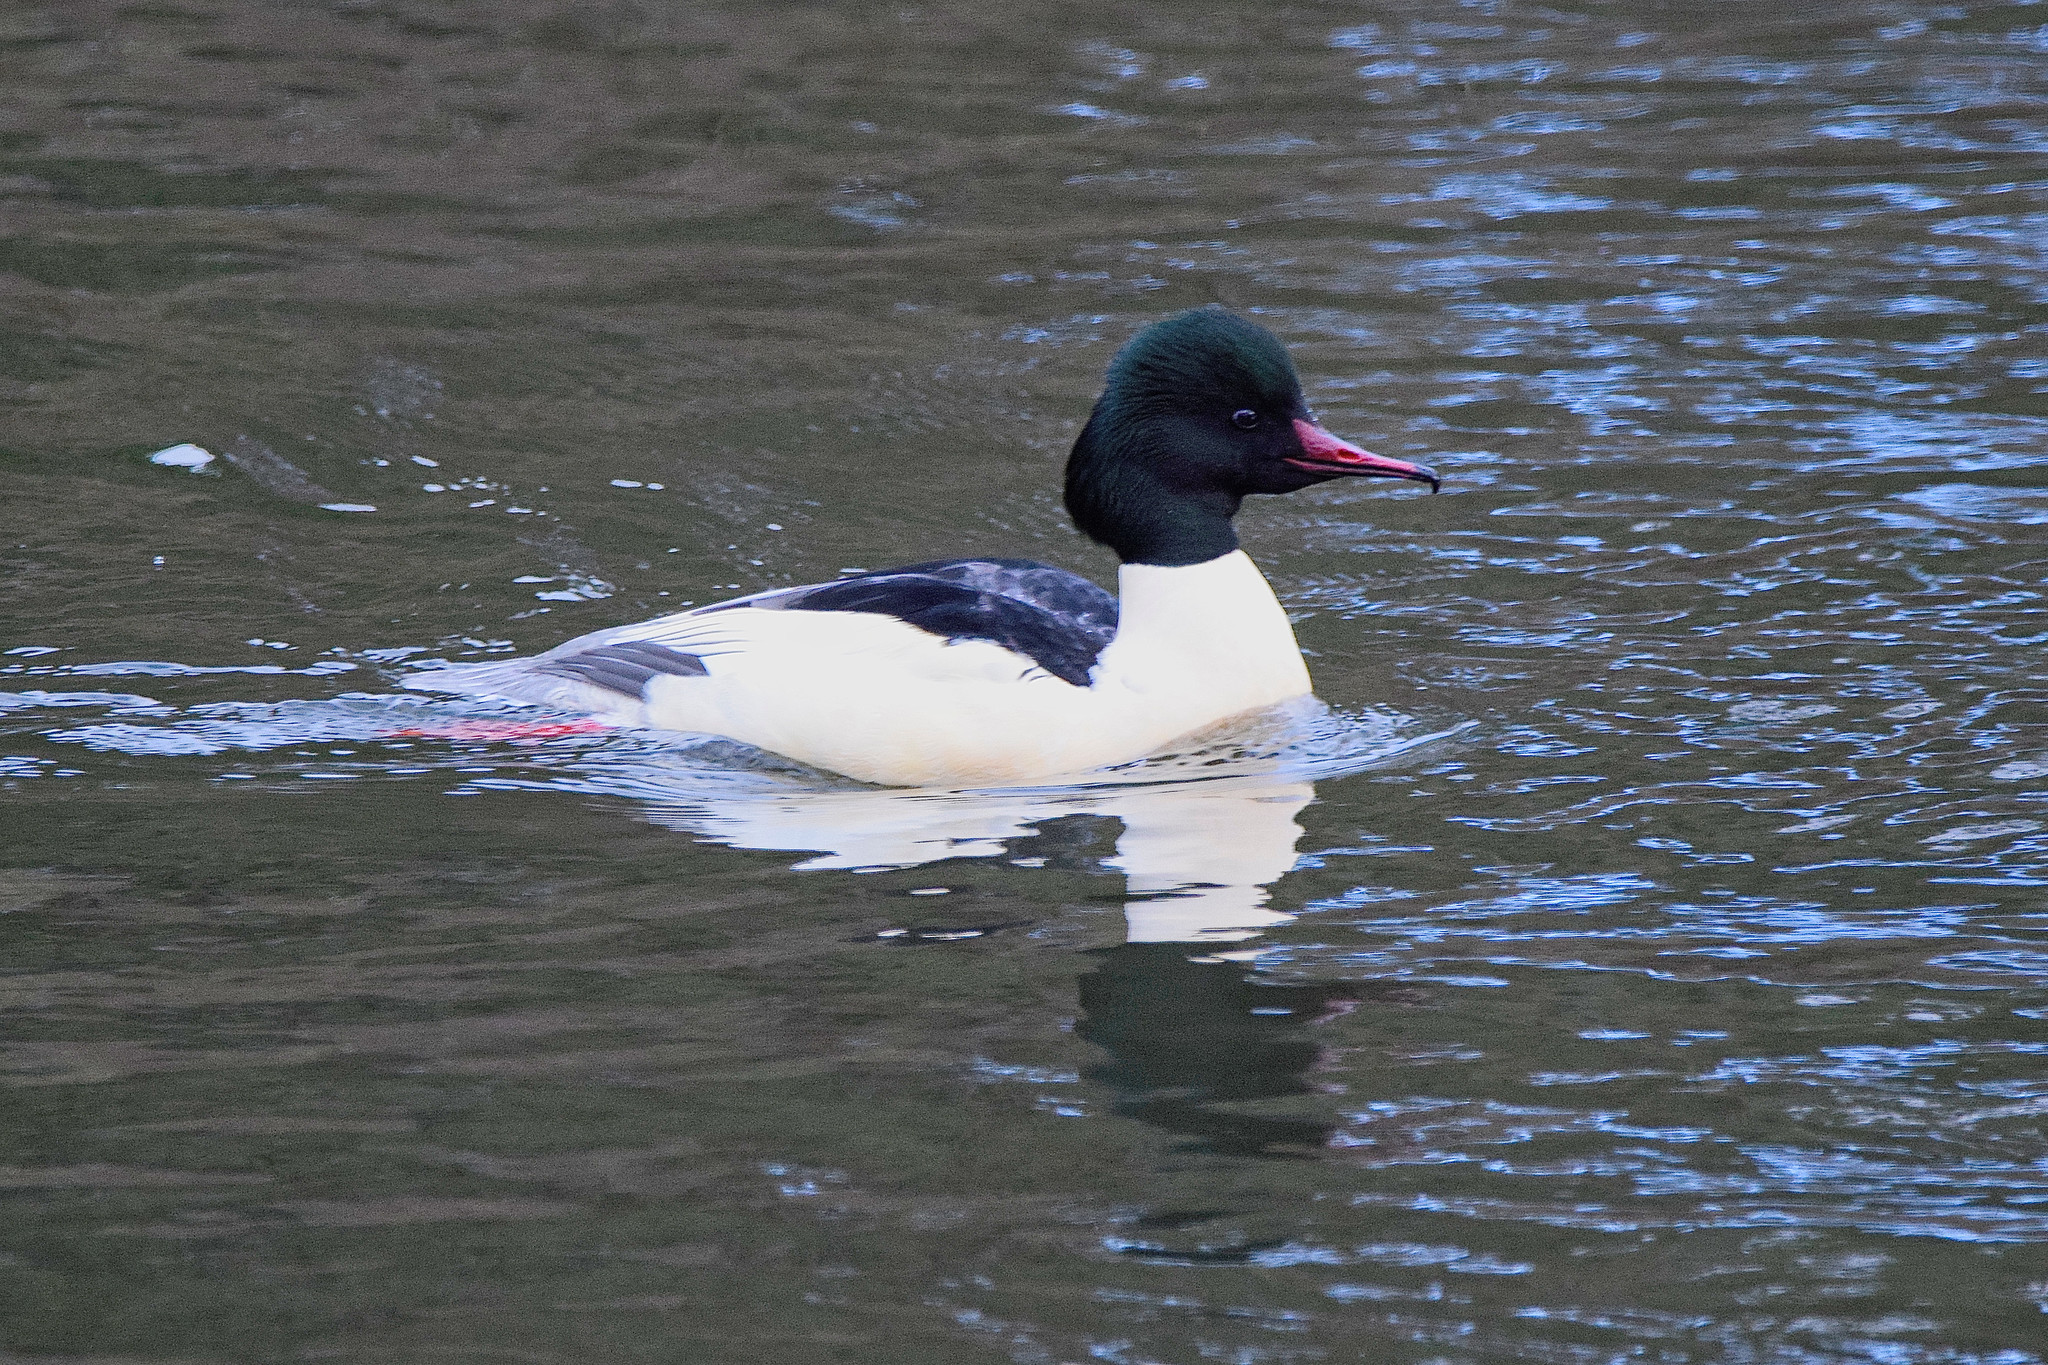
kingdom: Animalia
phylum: Chordata
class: Aves
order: Anseriformes
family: Anatidae
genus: Mergus
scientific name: Mergus merganser
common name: Common merganser
